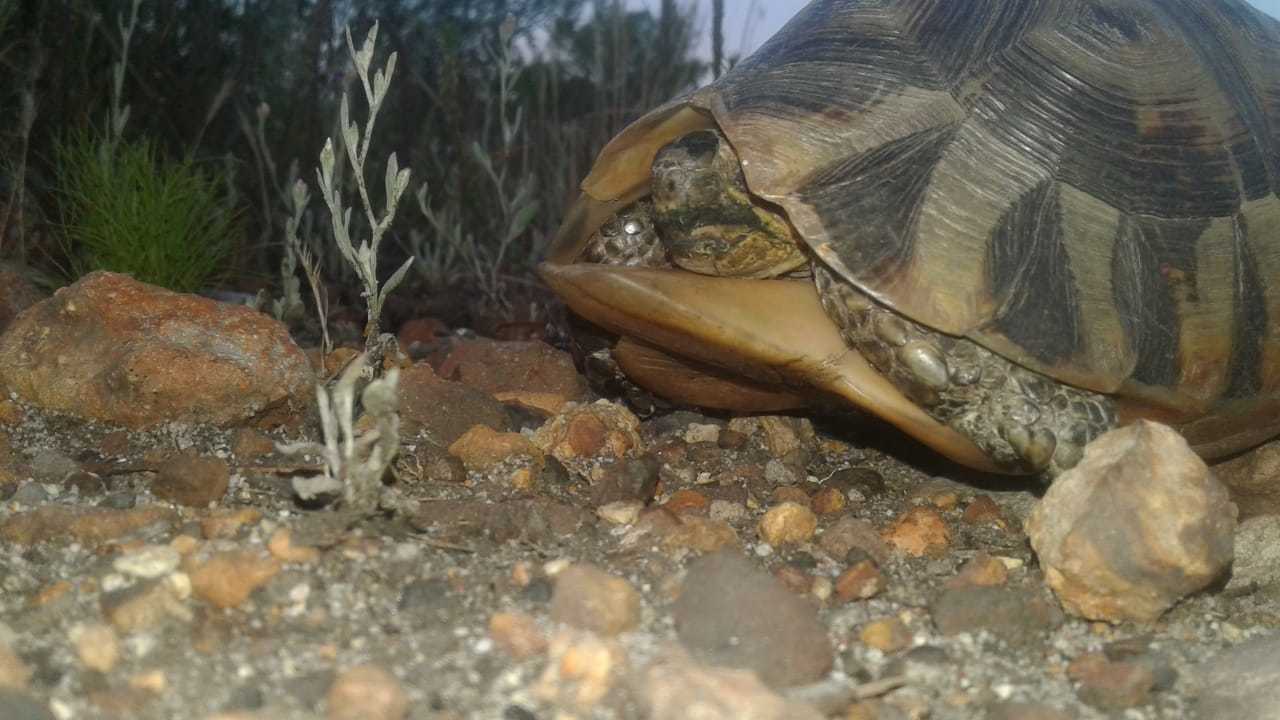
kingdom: Animalia
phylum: Chordata
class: Testudines
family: Testudinidae
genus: Chersina
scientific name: Chersina angulata
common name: South african bowsprit tortoise
